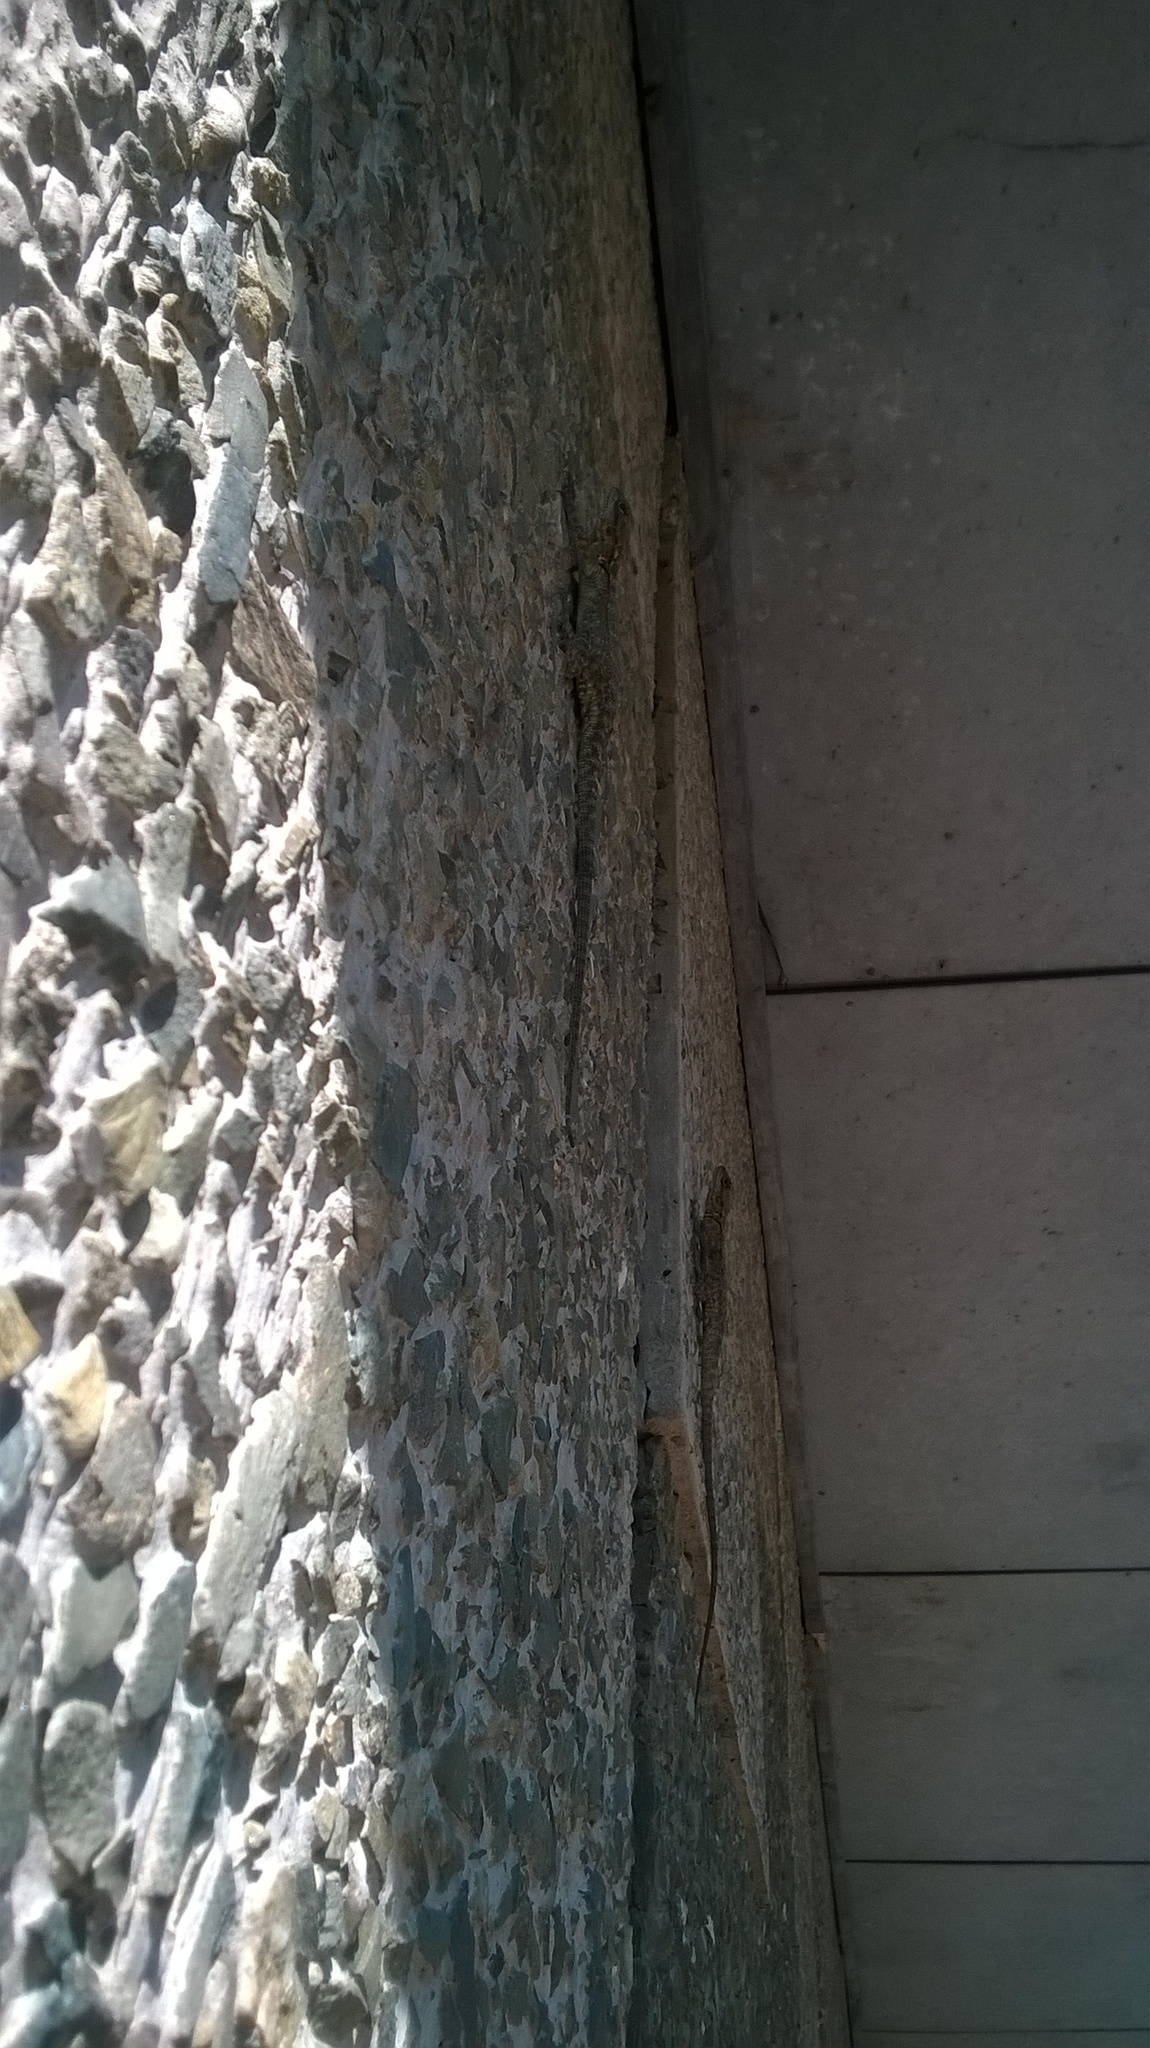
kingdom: Animalia
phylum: Chordata
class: Squamata
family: Agamidae
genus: Laudakia
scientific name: Laudakia tuberculata
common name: Kashmir rock agama
